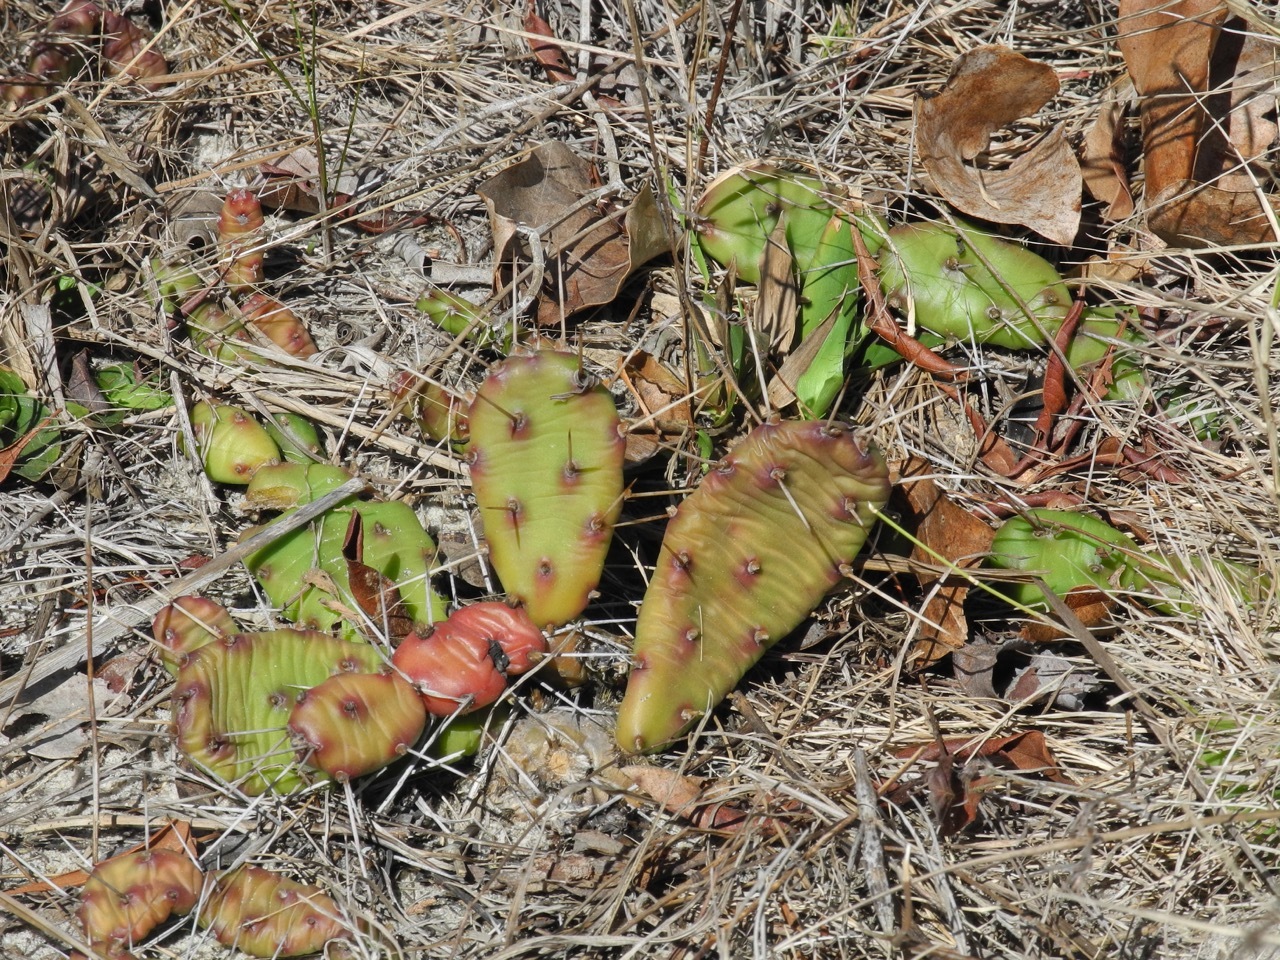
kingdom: Plantae
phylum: Tracheophyta
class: Magnoliopsida
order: Caryophyllales
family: Cactaceae
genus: Opuntia
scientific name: Opuntia drummondii
